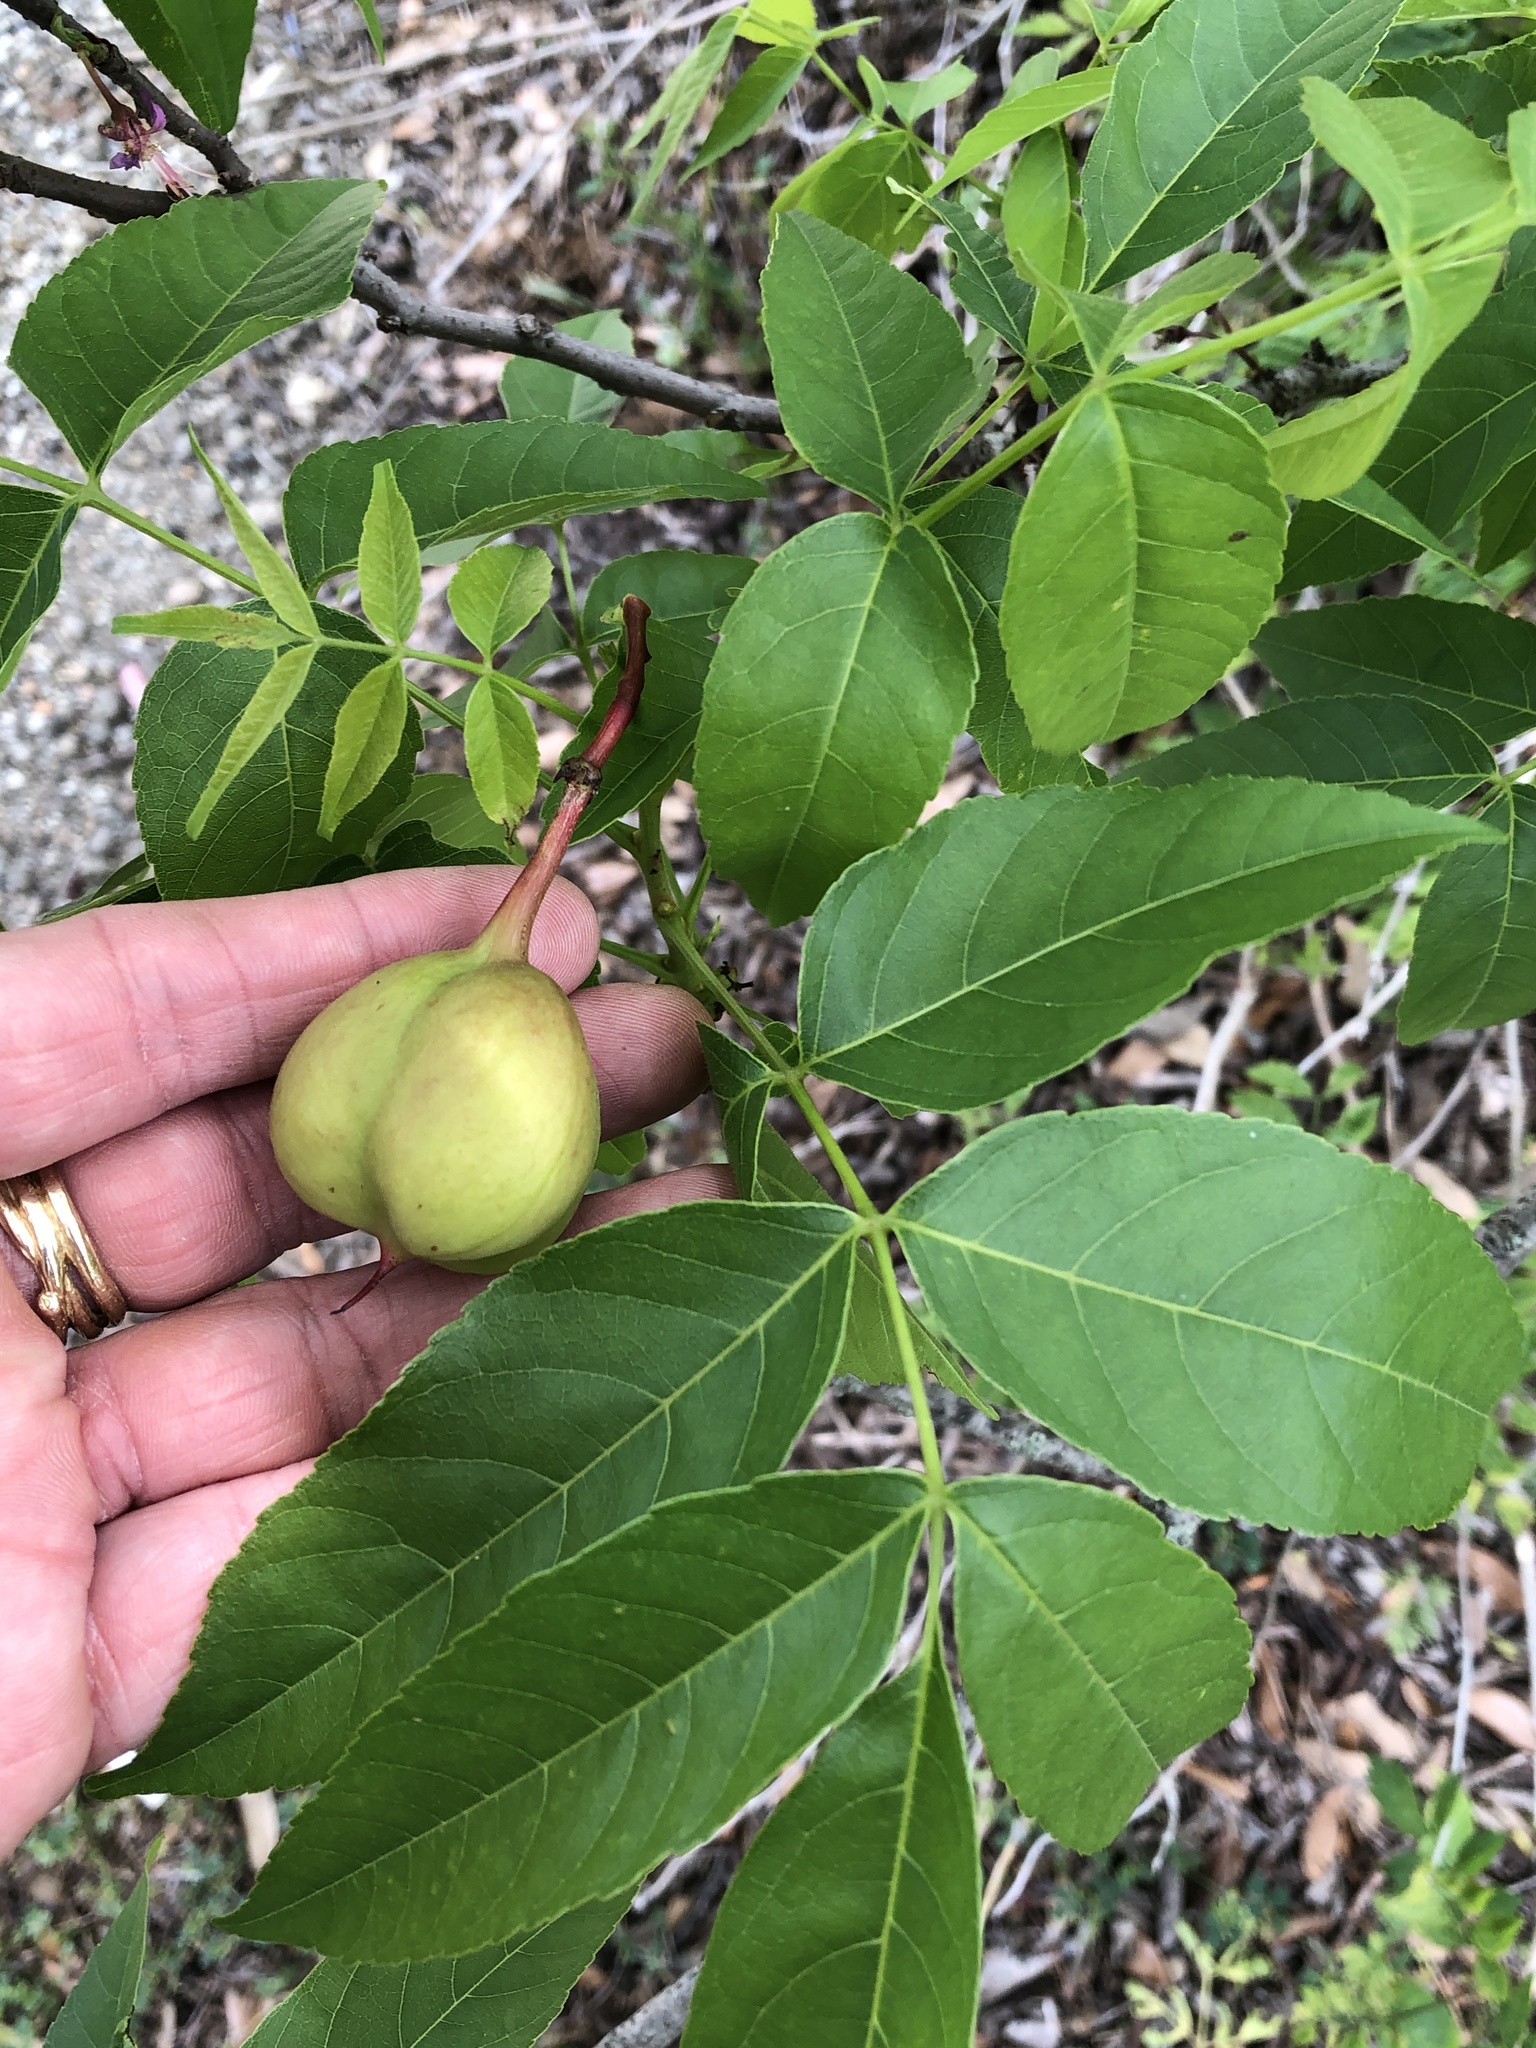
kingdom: Plantae
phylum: Tracheophyta
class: Magnoliopsida
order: Sapindales
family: Sapindaceae
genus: Ungnadia
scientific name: Ungnadia speciosa
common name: Texas-buckeye
